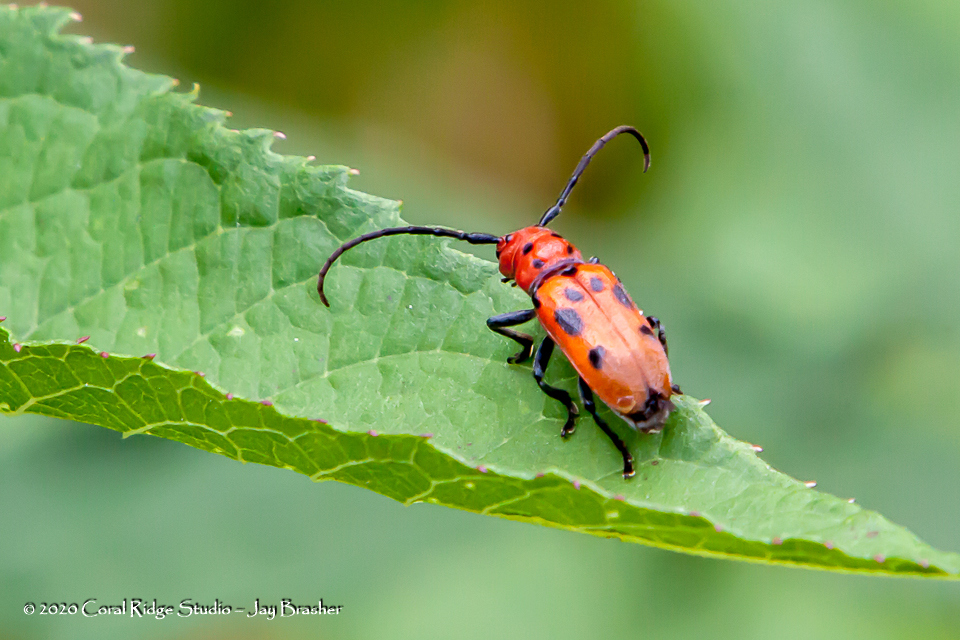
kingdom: Animalia
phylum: Arthropoda
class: Insecta
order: Coleoptera
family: Cerambycidae
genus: Tetraopes
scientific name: Tetraopes tetrophthalmus
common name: Red milkweed beetle
